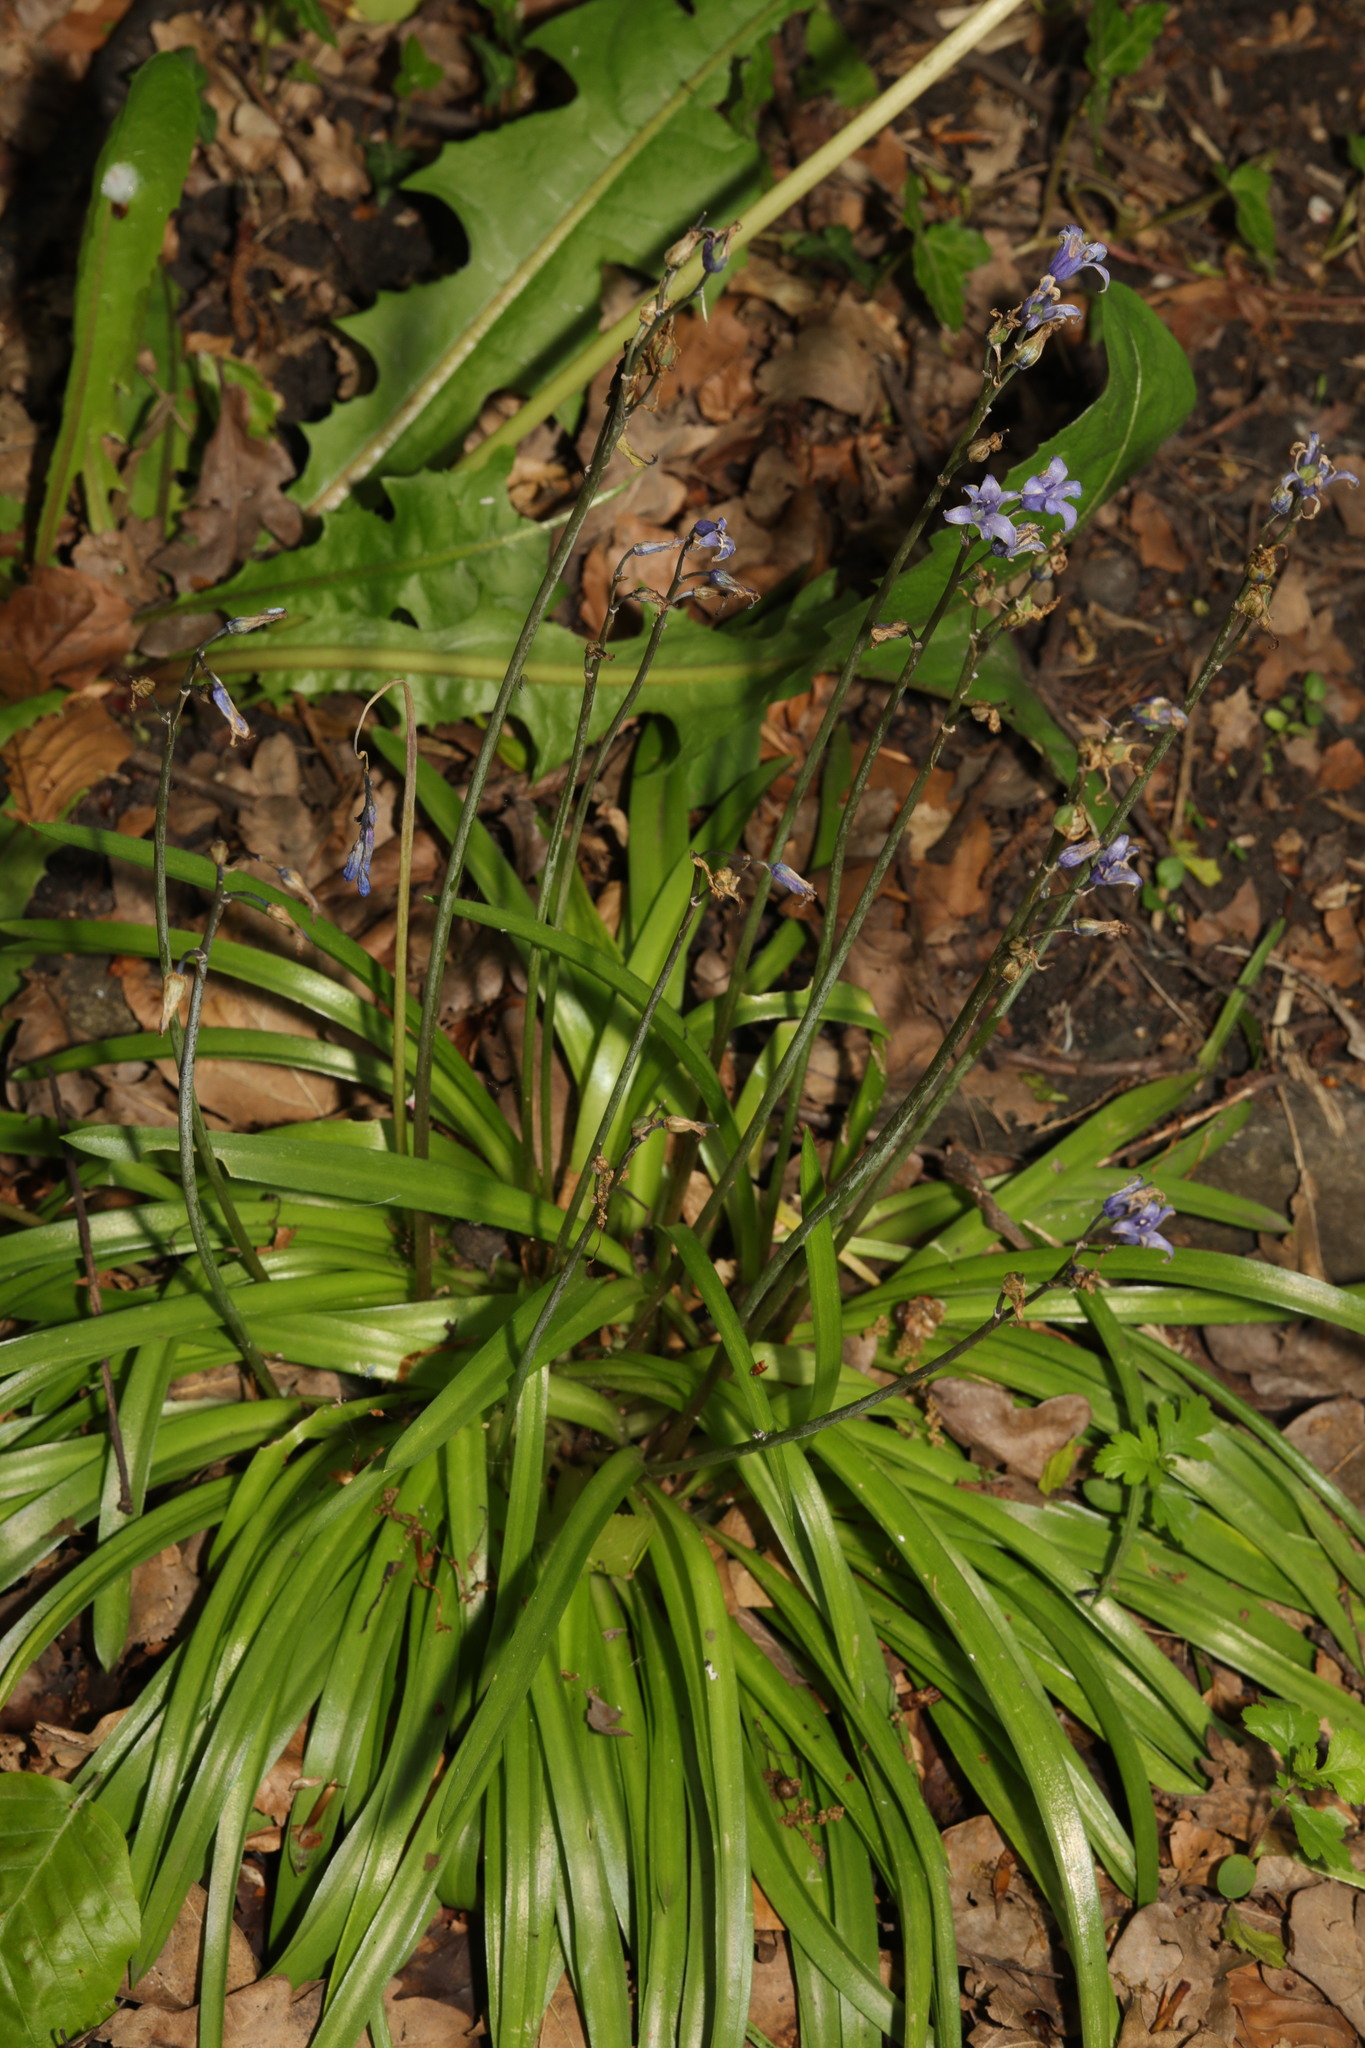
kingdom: Plantae
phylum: Tracheophyta
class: Liliopsida
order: Asparagales
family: Asparagaceae
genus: Hyacinthoides
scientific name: Hyacinthoides massartiana
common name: Hyacinthoides
